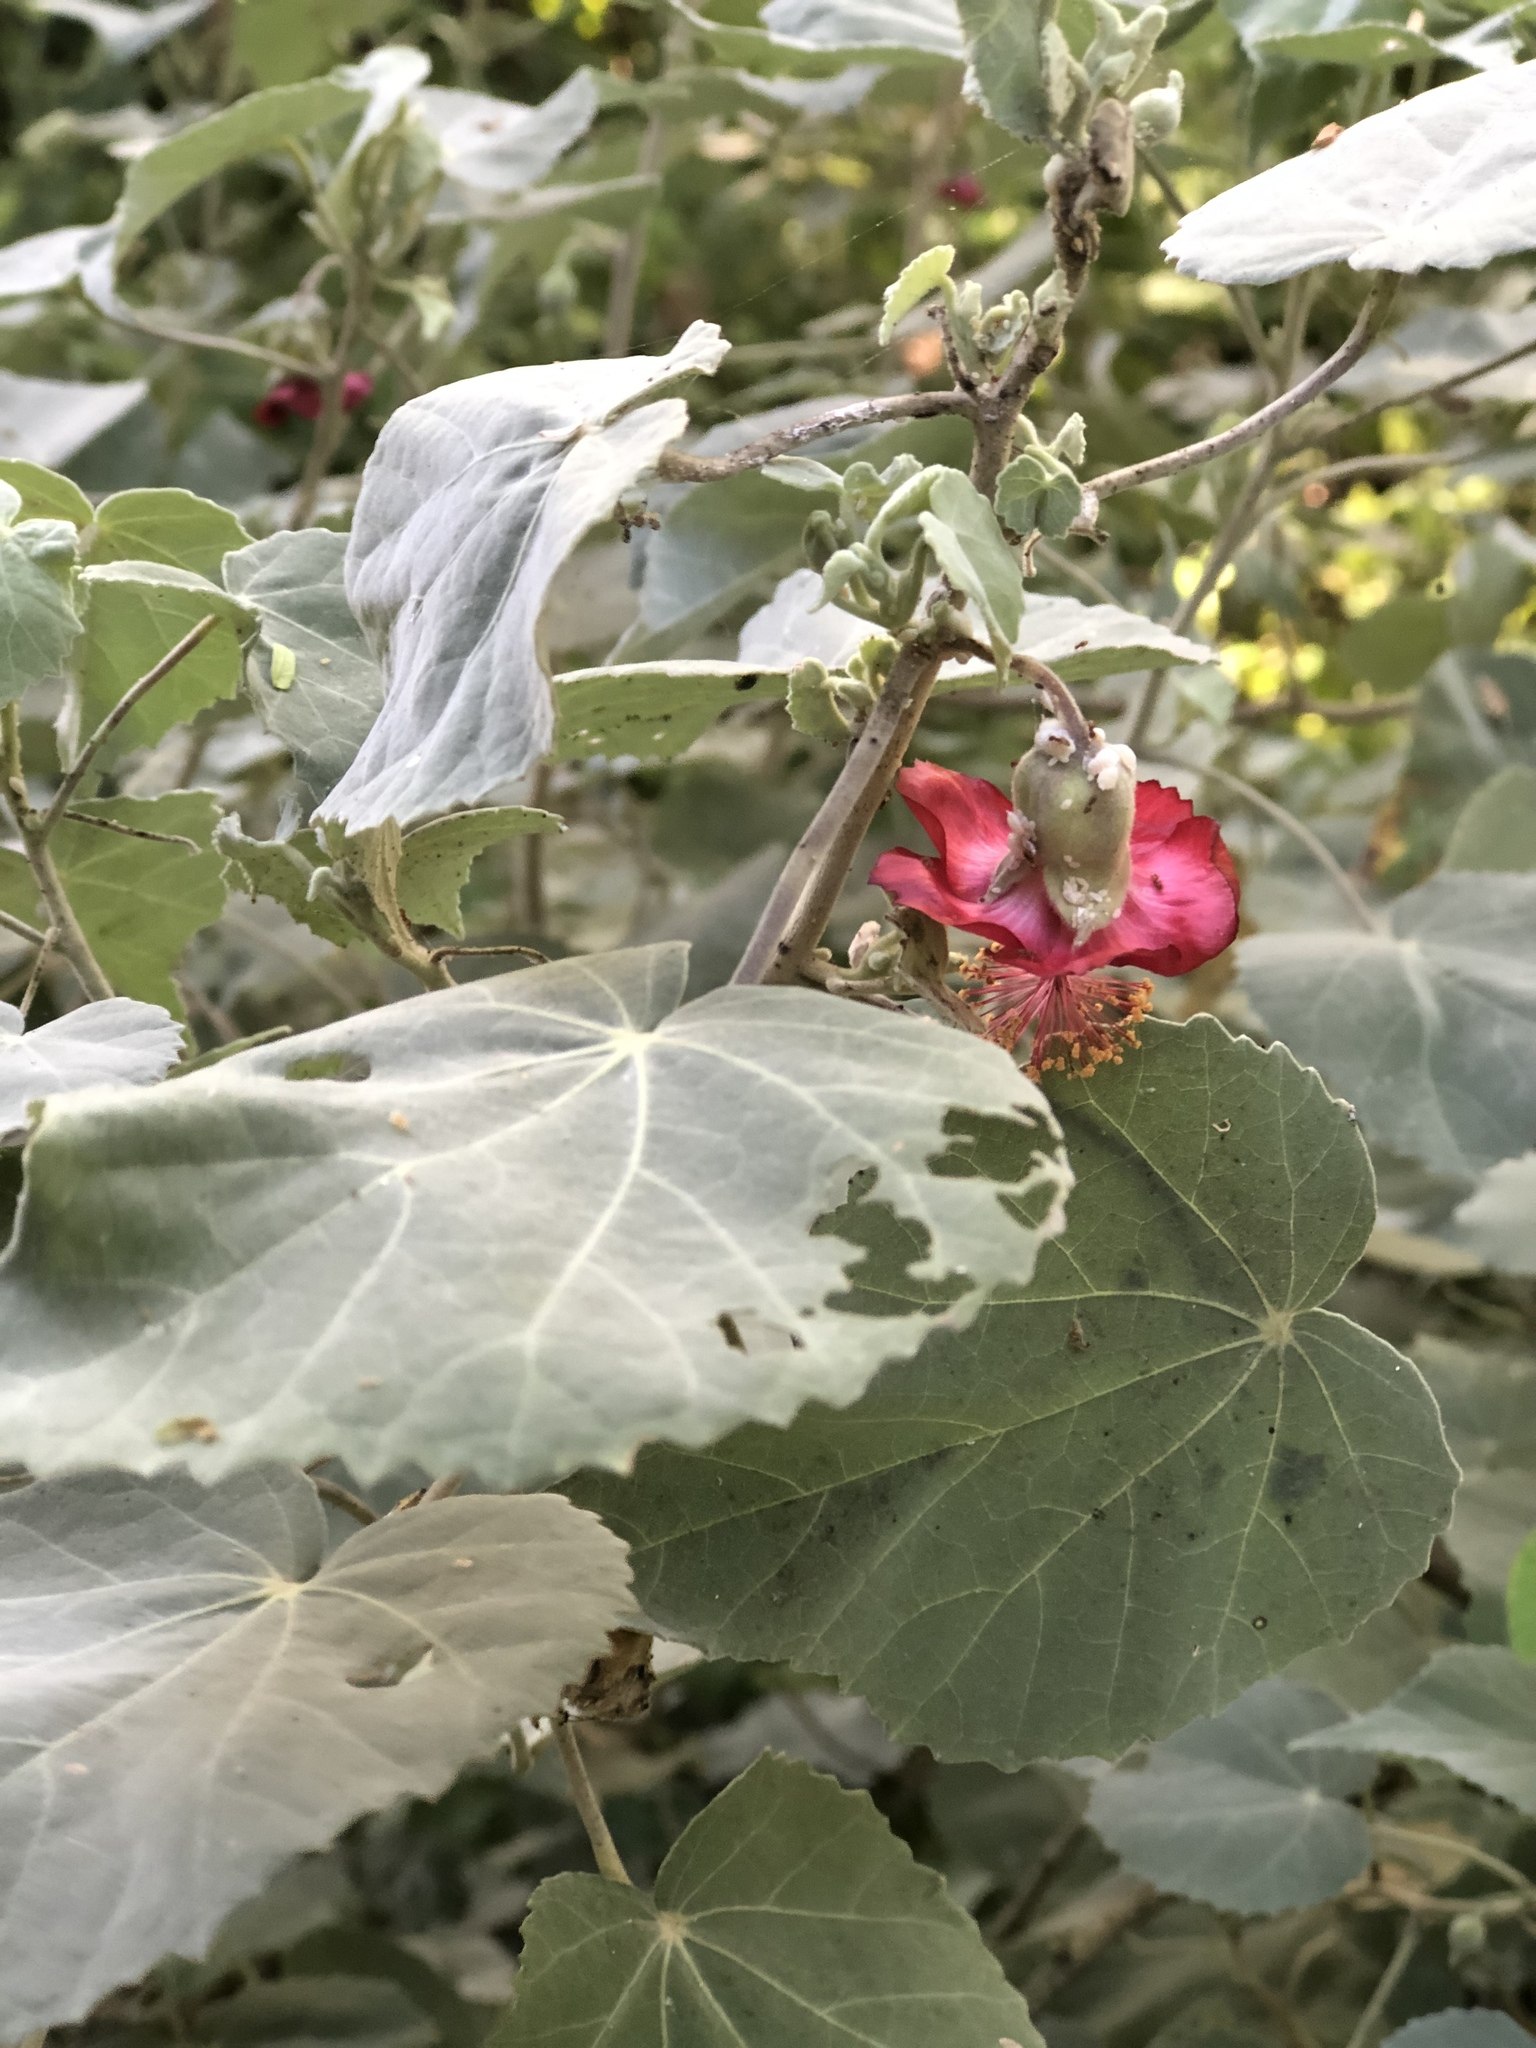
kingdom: Plantae
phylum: Tracheophyta
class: Magnoliopsida
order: Malvales
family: Malvaceae
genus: Abutilon
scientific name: Abutilon menziesii
